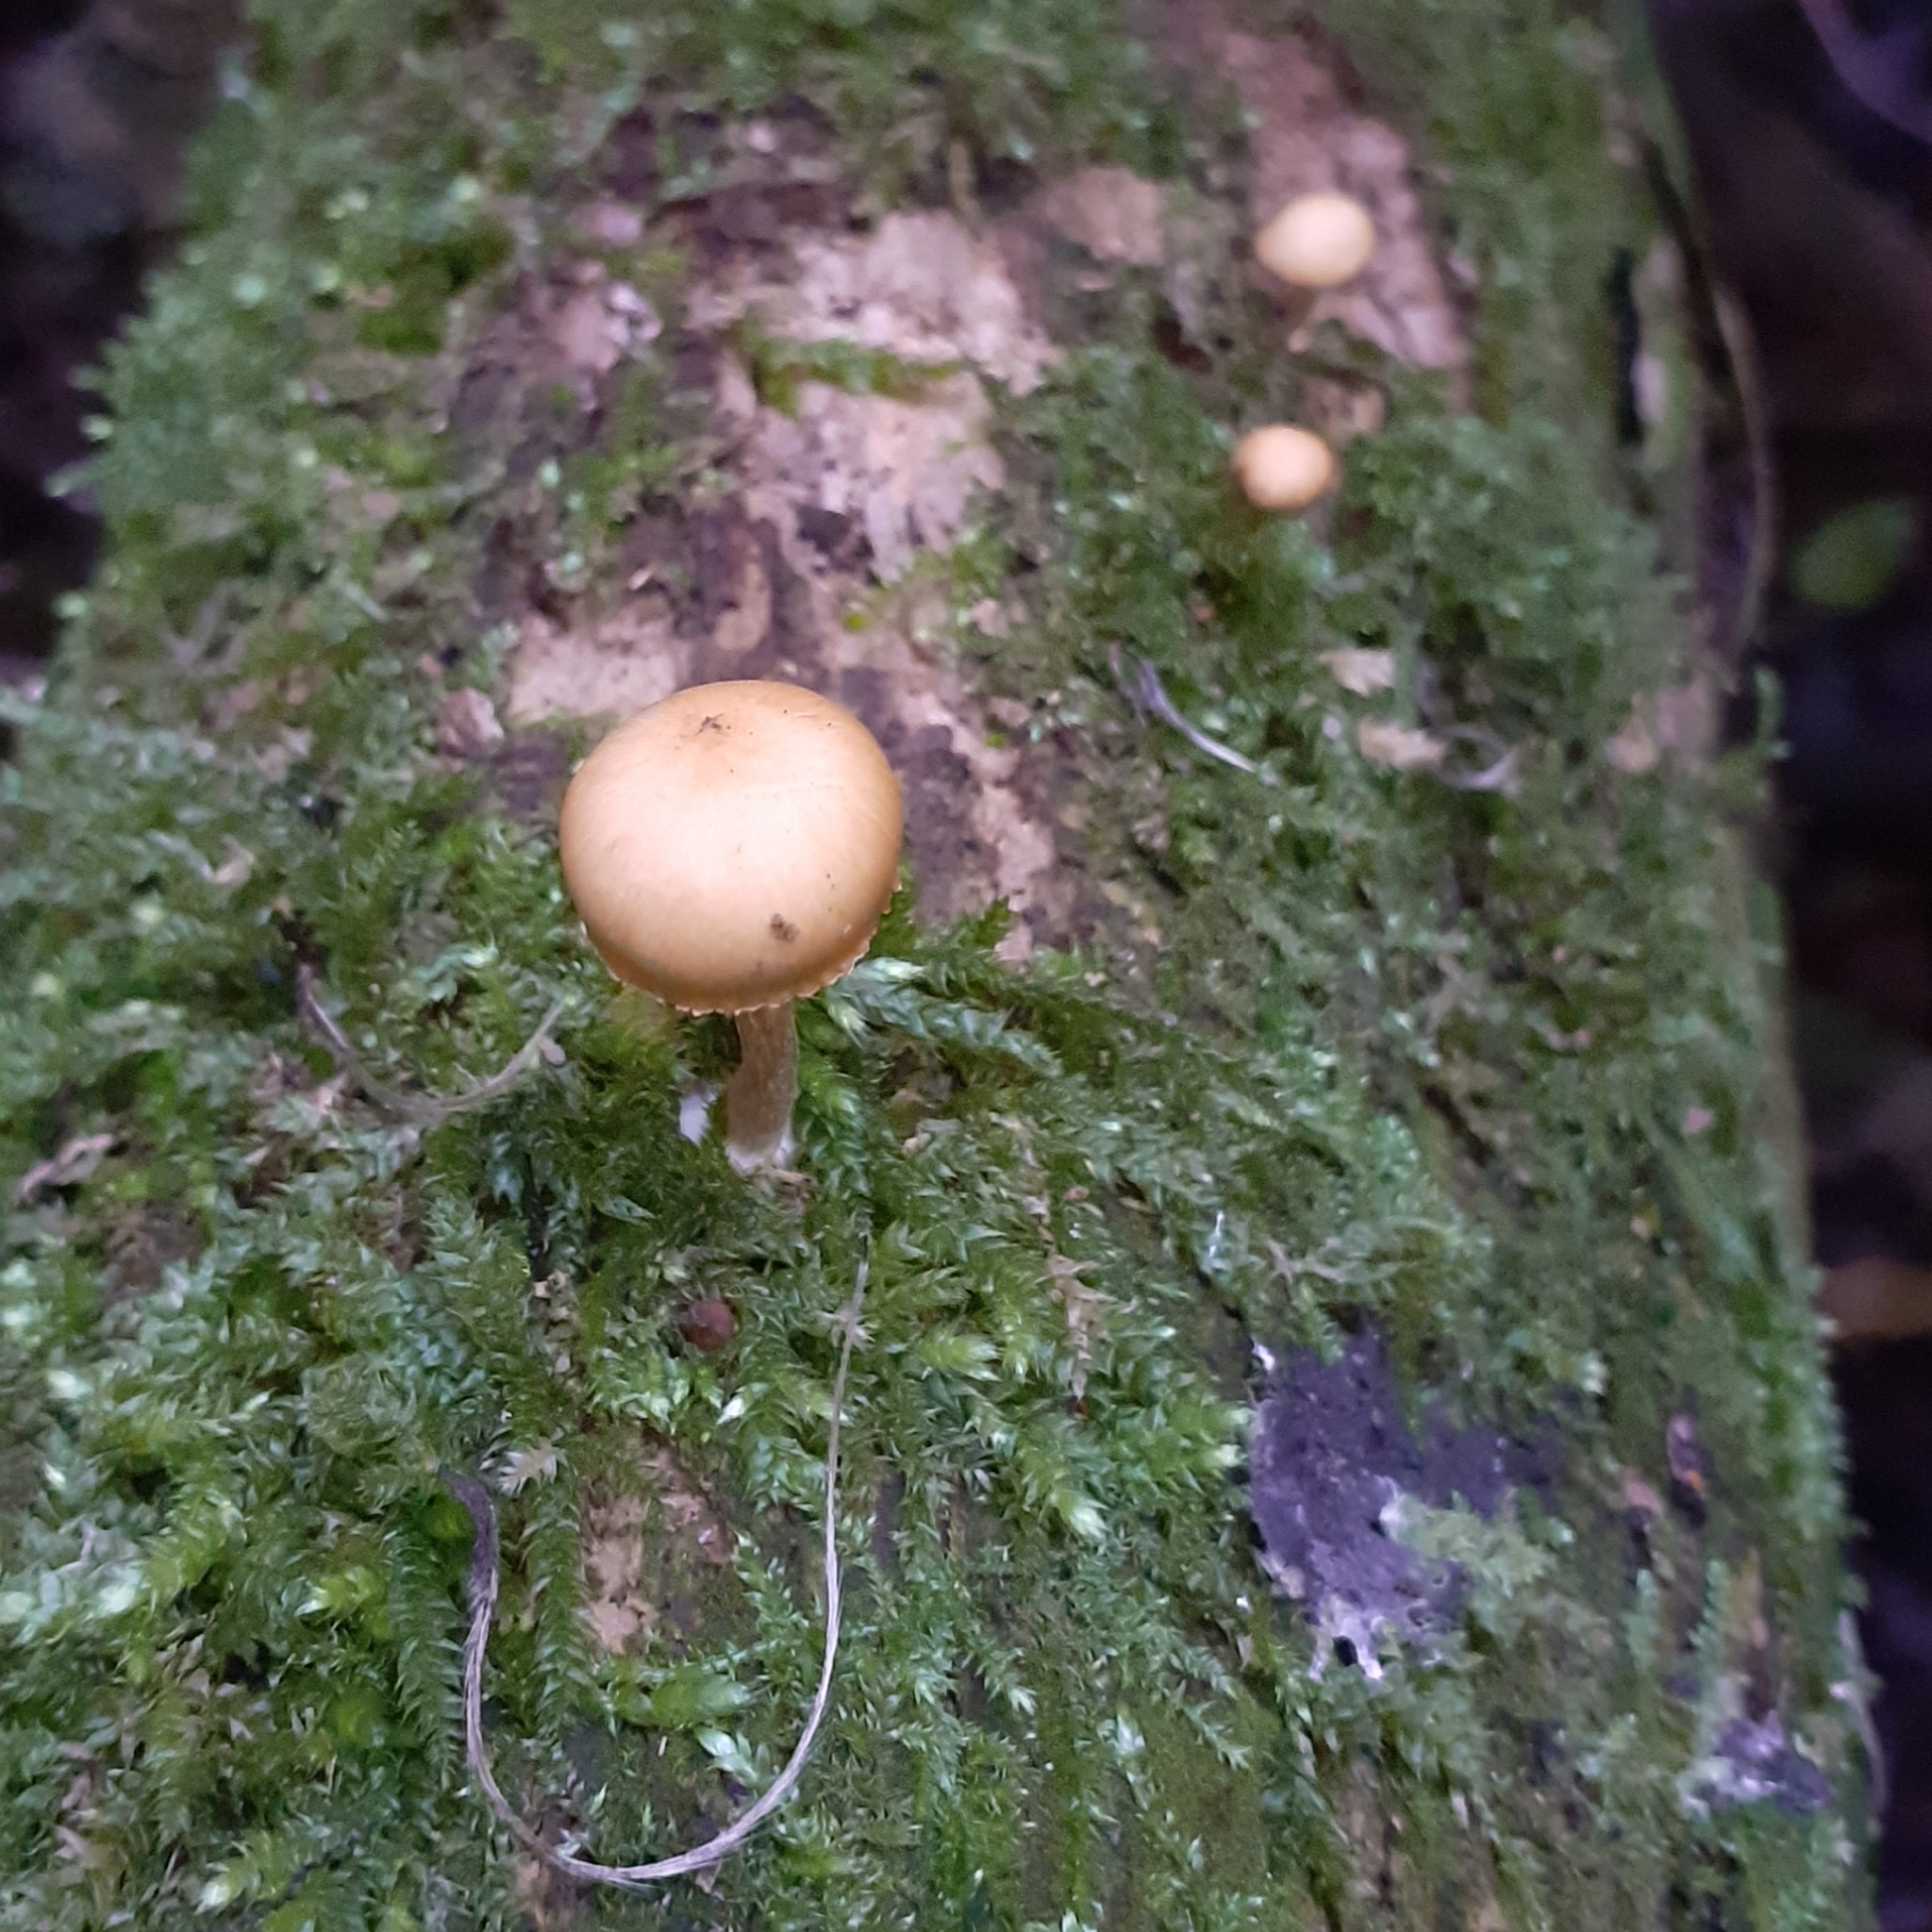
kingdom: Fungi
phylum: Basidiomycota
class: Agaricomycetes
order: Agaricales
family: Hymenogastraceae
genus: Galerina
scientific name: Galerina marginata
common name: Funeral bell
